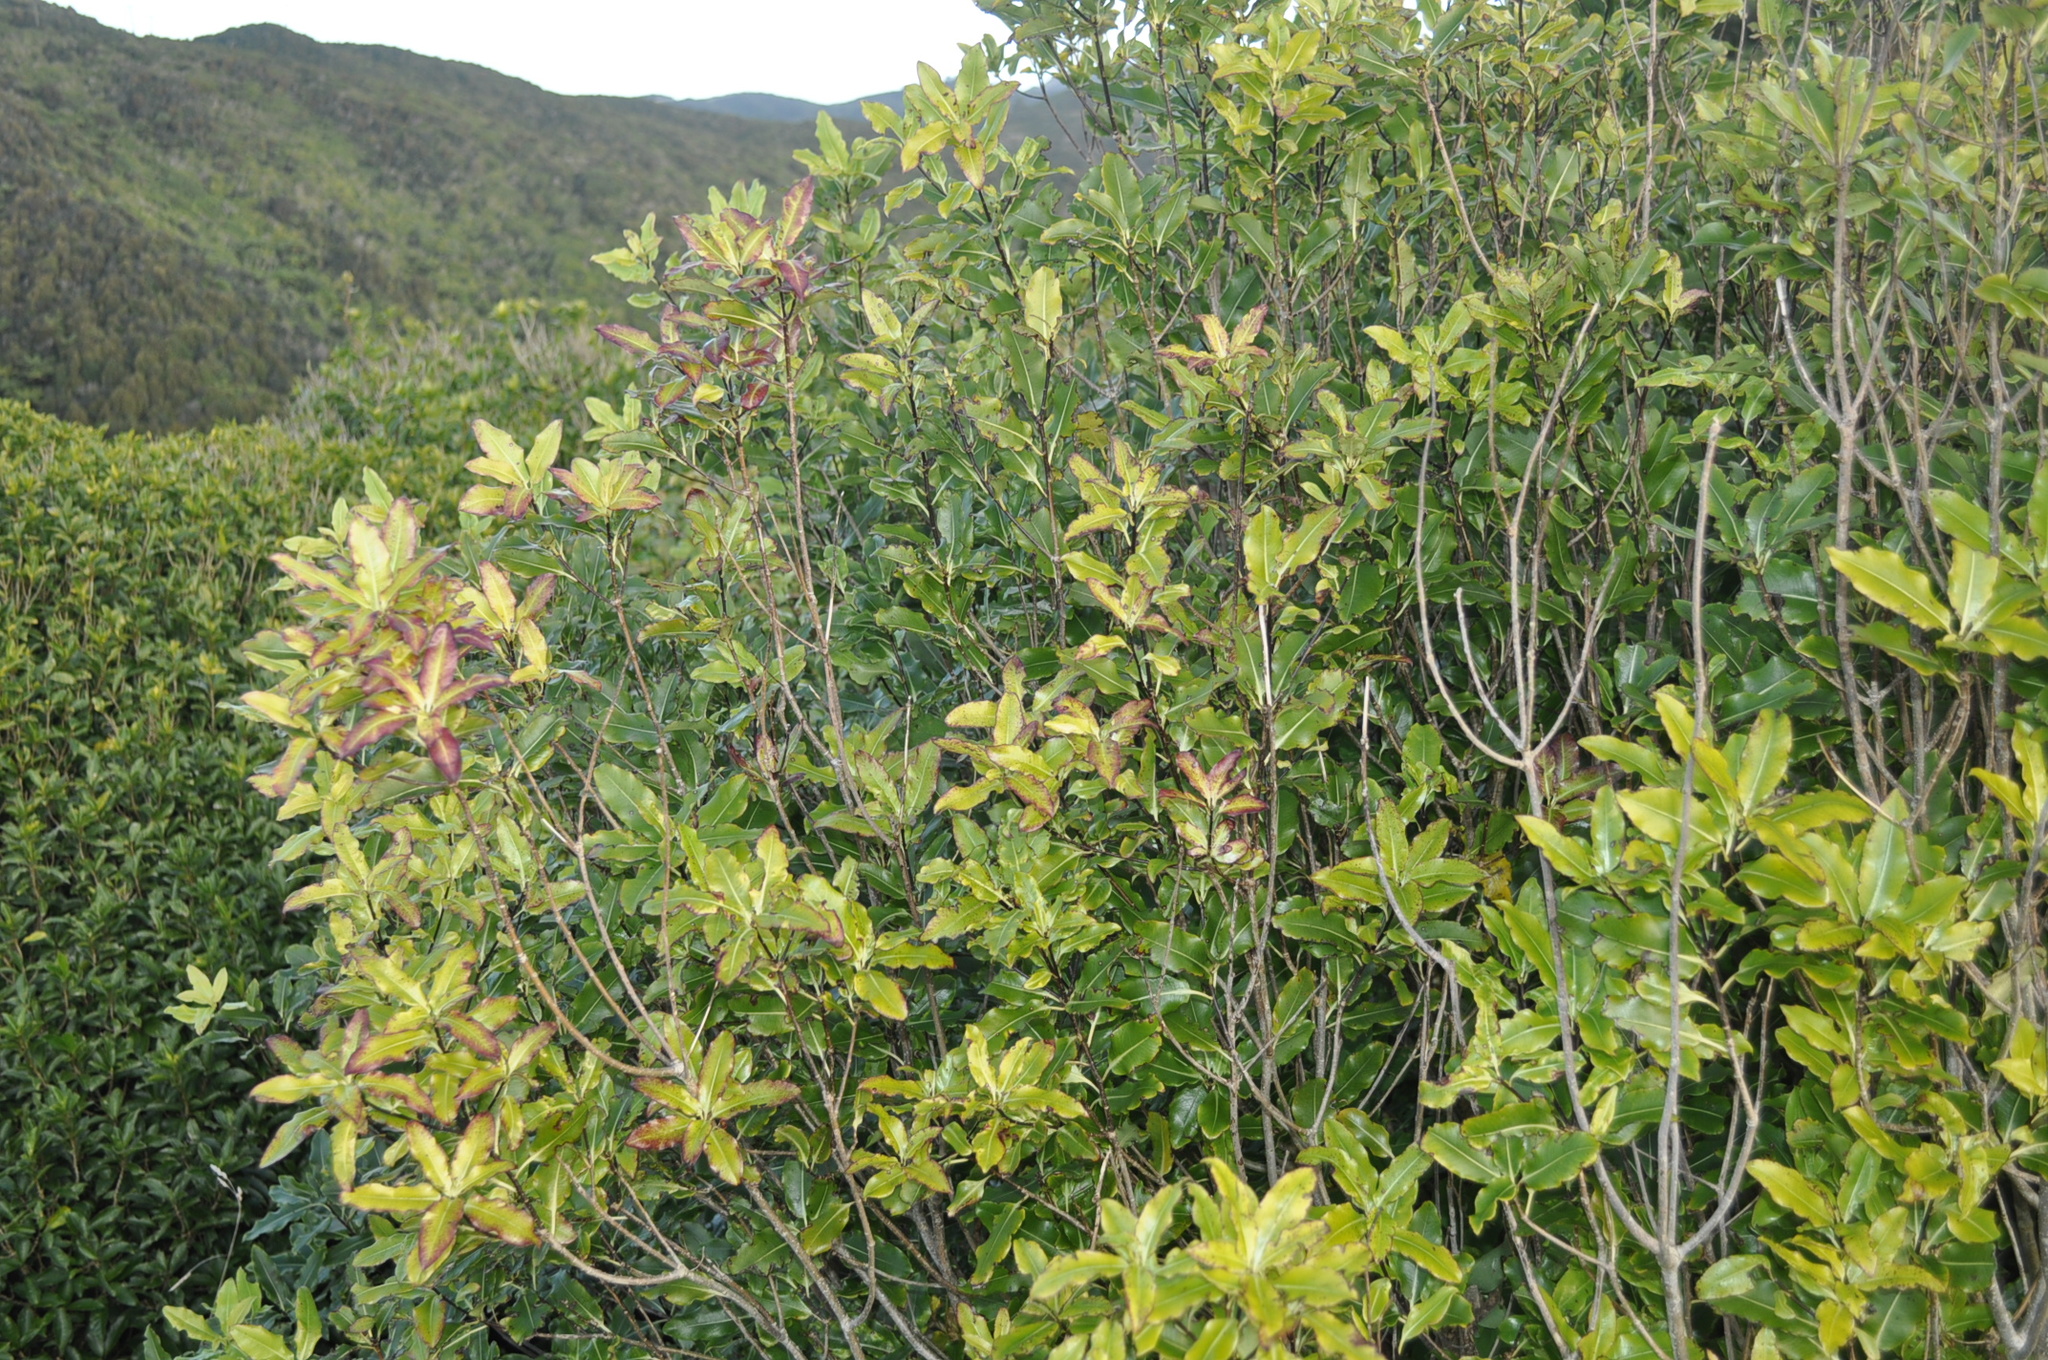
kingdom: Plantae
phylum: Tracheophyta
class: Magnoliopsida
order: Apiales
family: Pittosporaceae
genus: Pittosporum
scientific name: Pittosporum eugenioides
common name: Lemonwood
